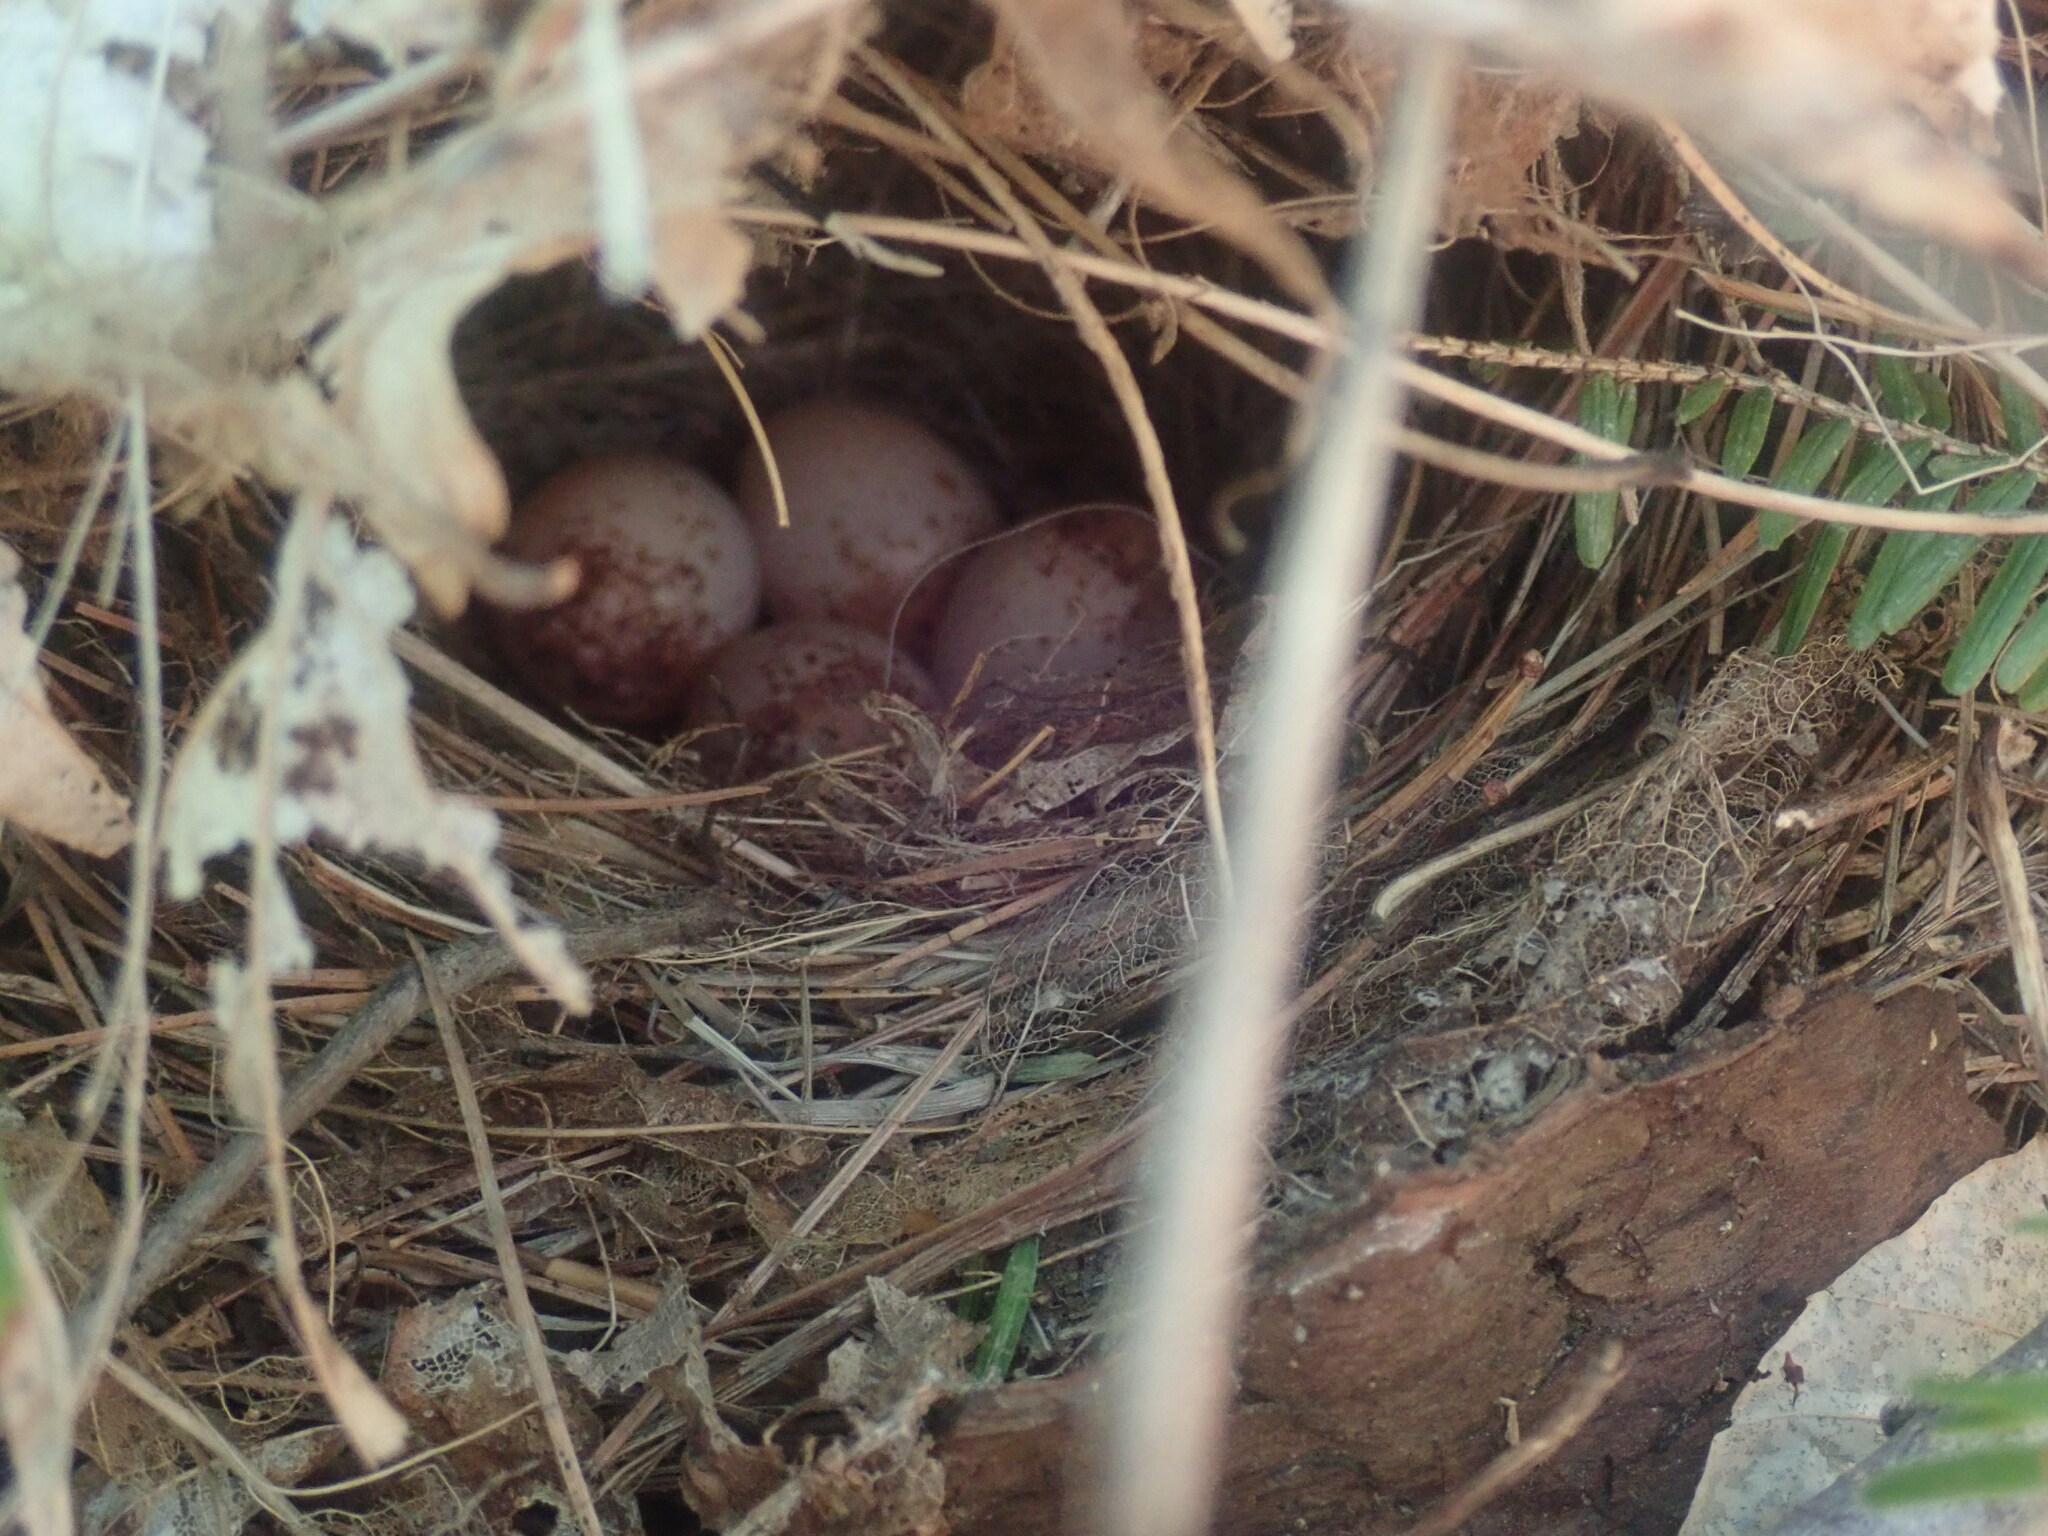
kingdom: Animalia
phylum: Chordata
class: Aves
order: Passeriformes
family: Parulidae
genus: Seiurus
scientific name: Seiurus aurocapilla
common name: Ovenbird
